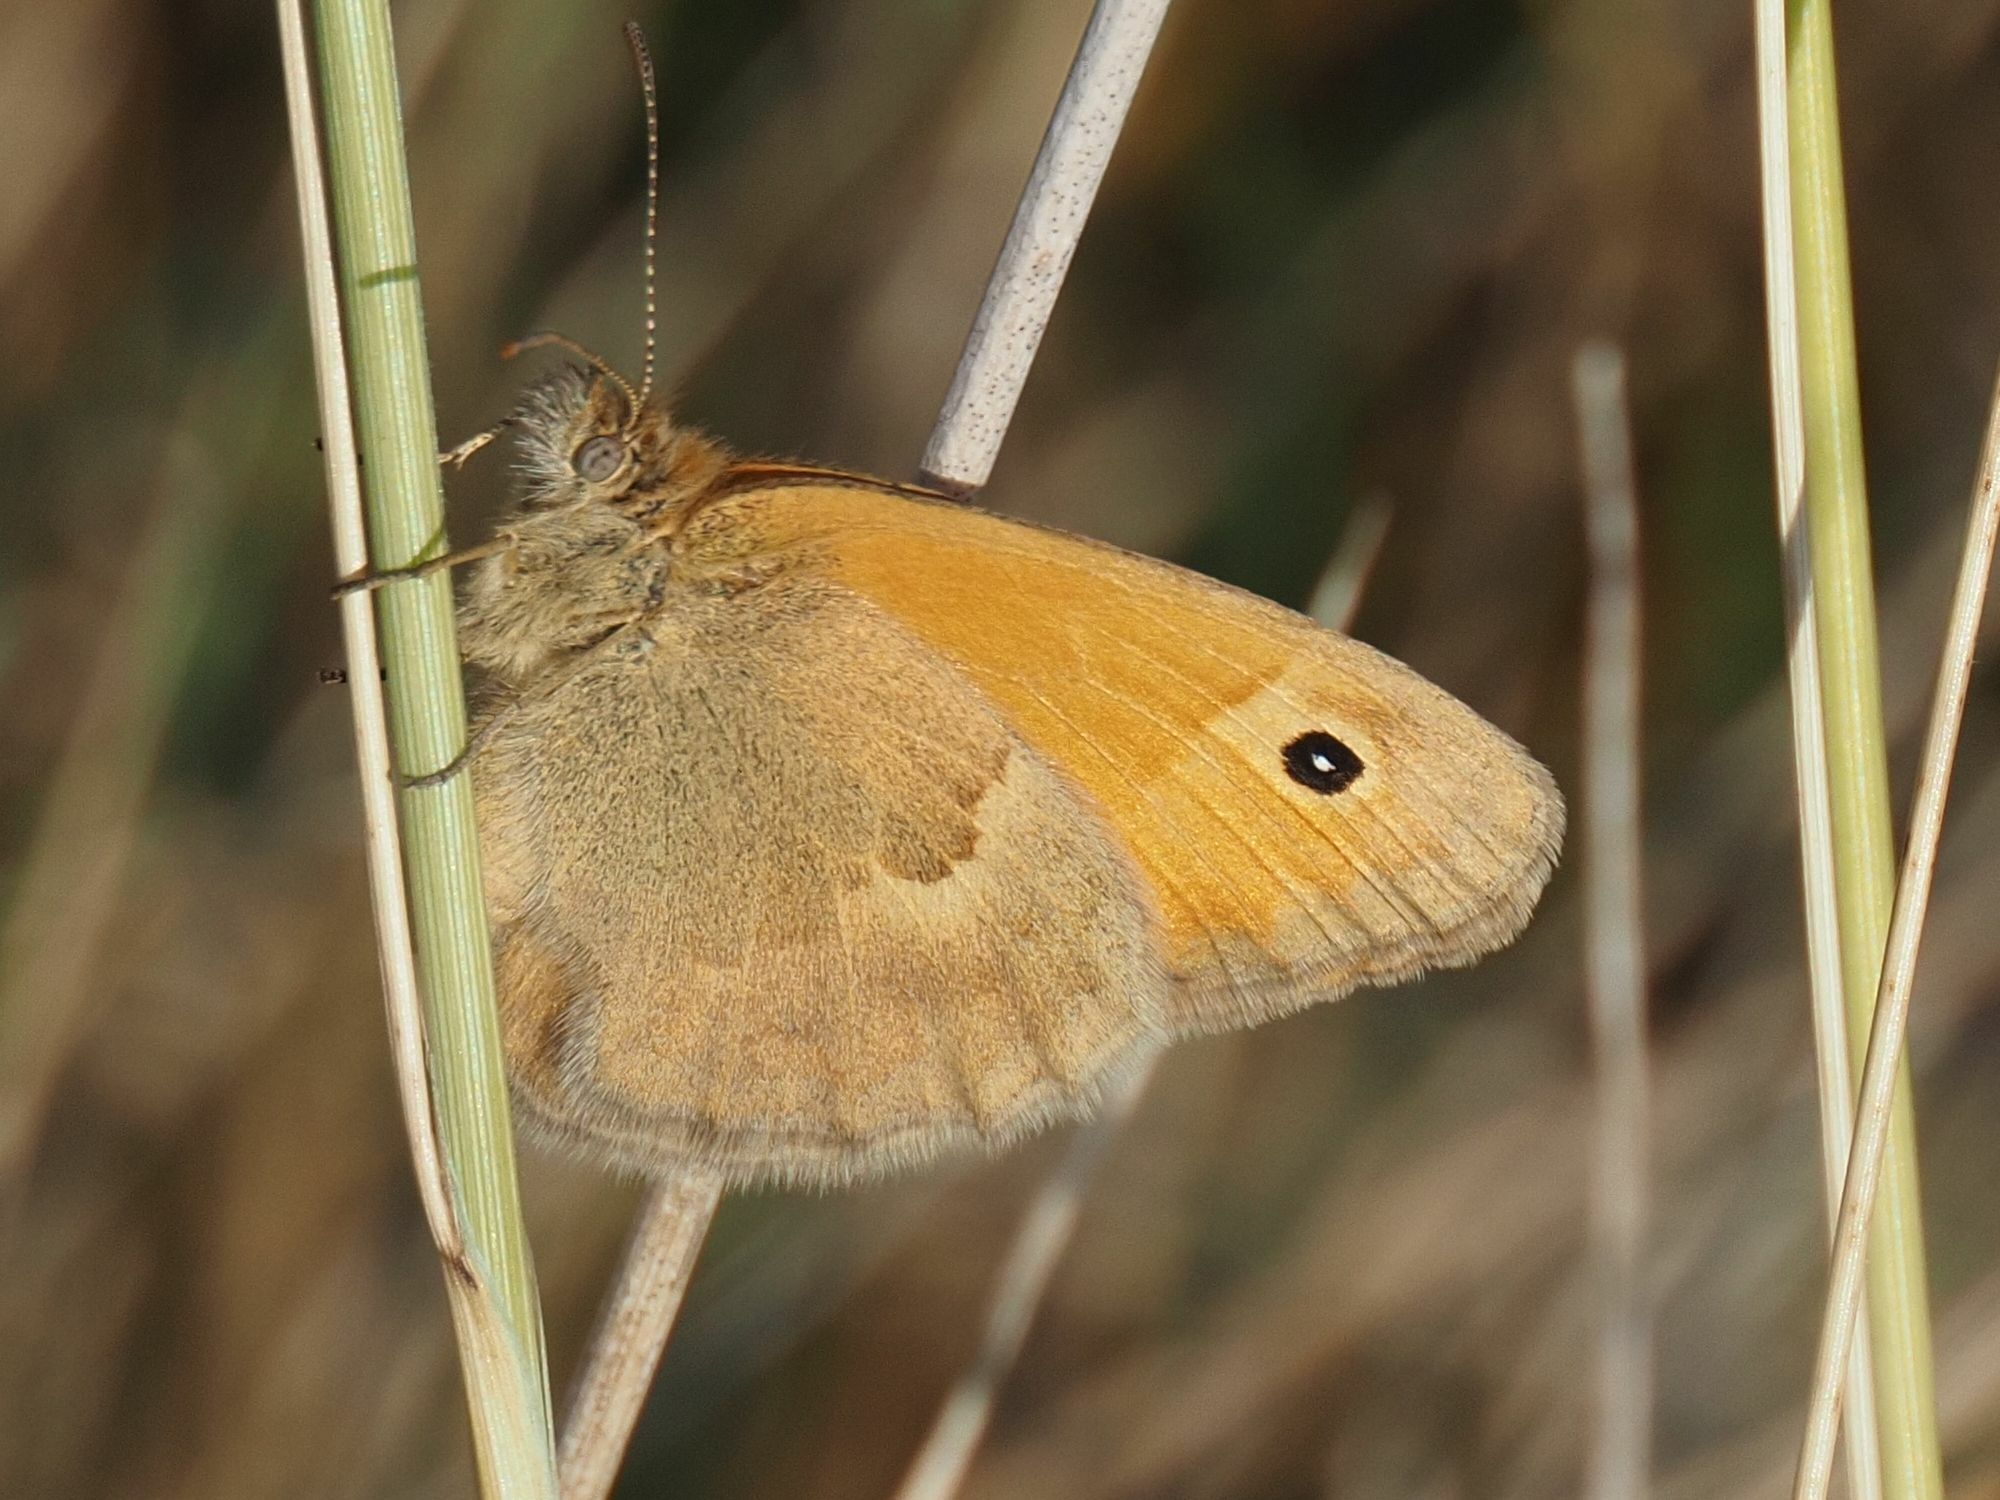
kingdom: Animalia
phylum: Arthropoda
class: Insecta
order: Lepidoptera
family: Nymphalidae
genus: Coenonympha
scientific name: Coenonympha pamphilus
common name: Small heath
